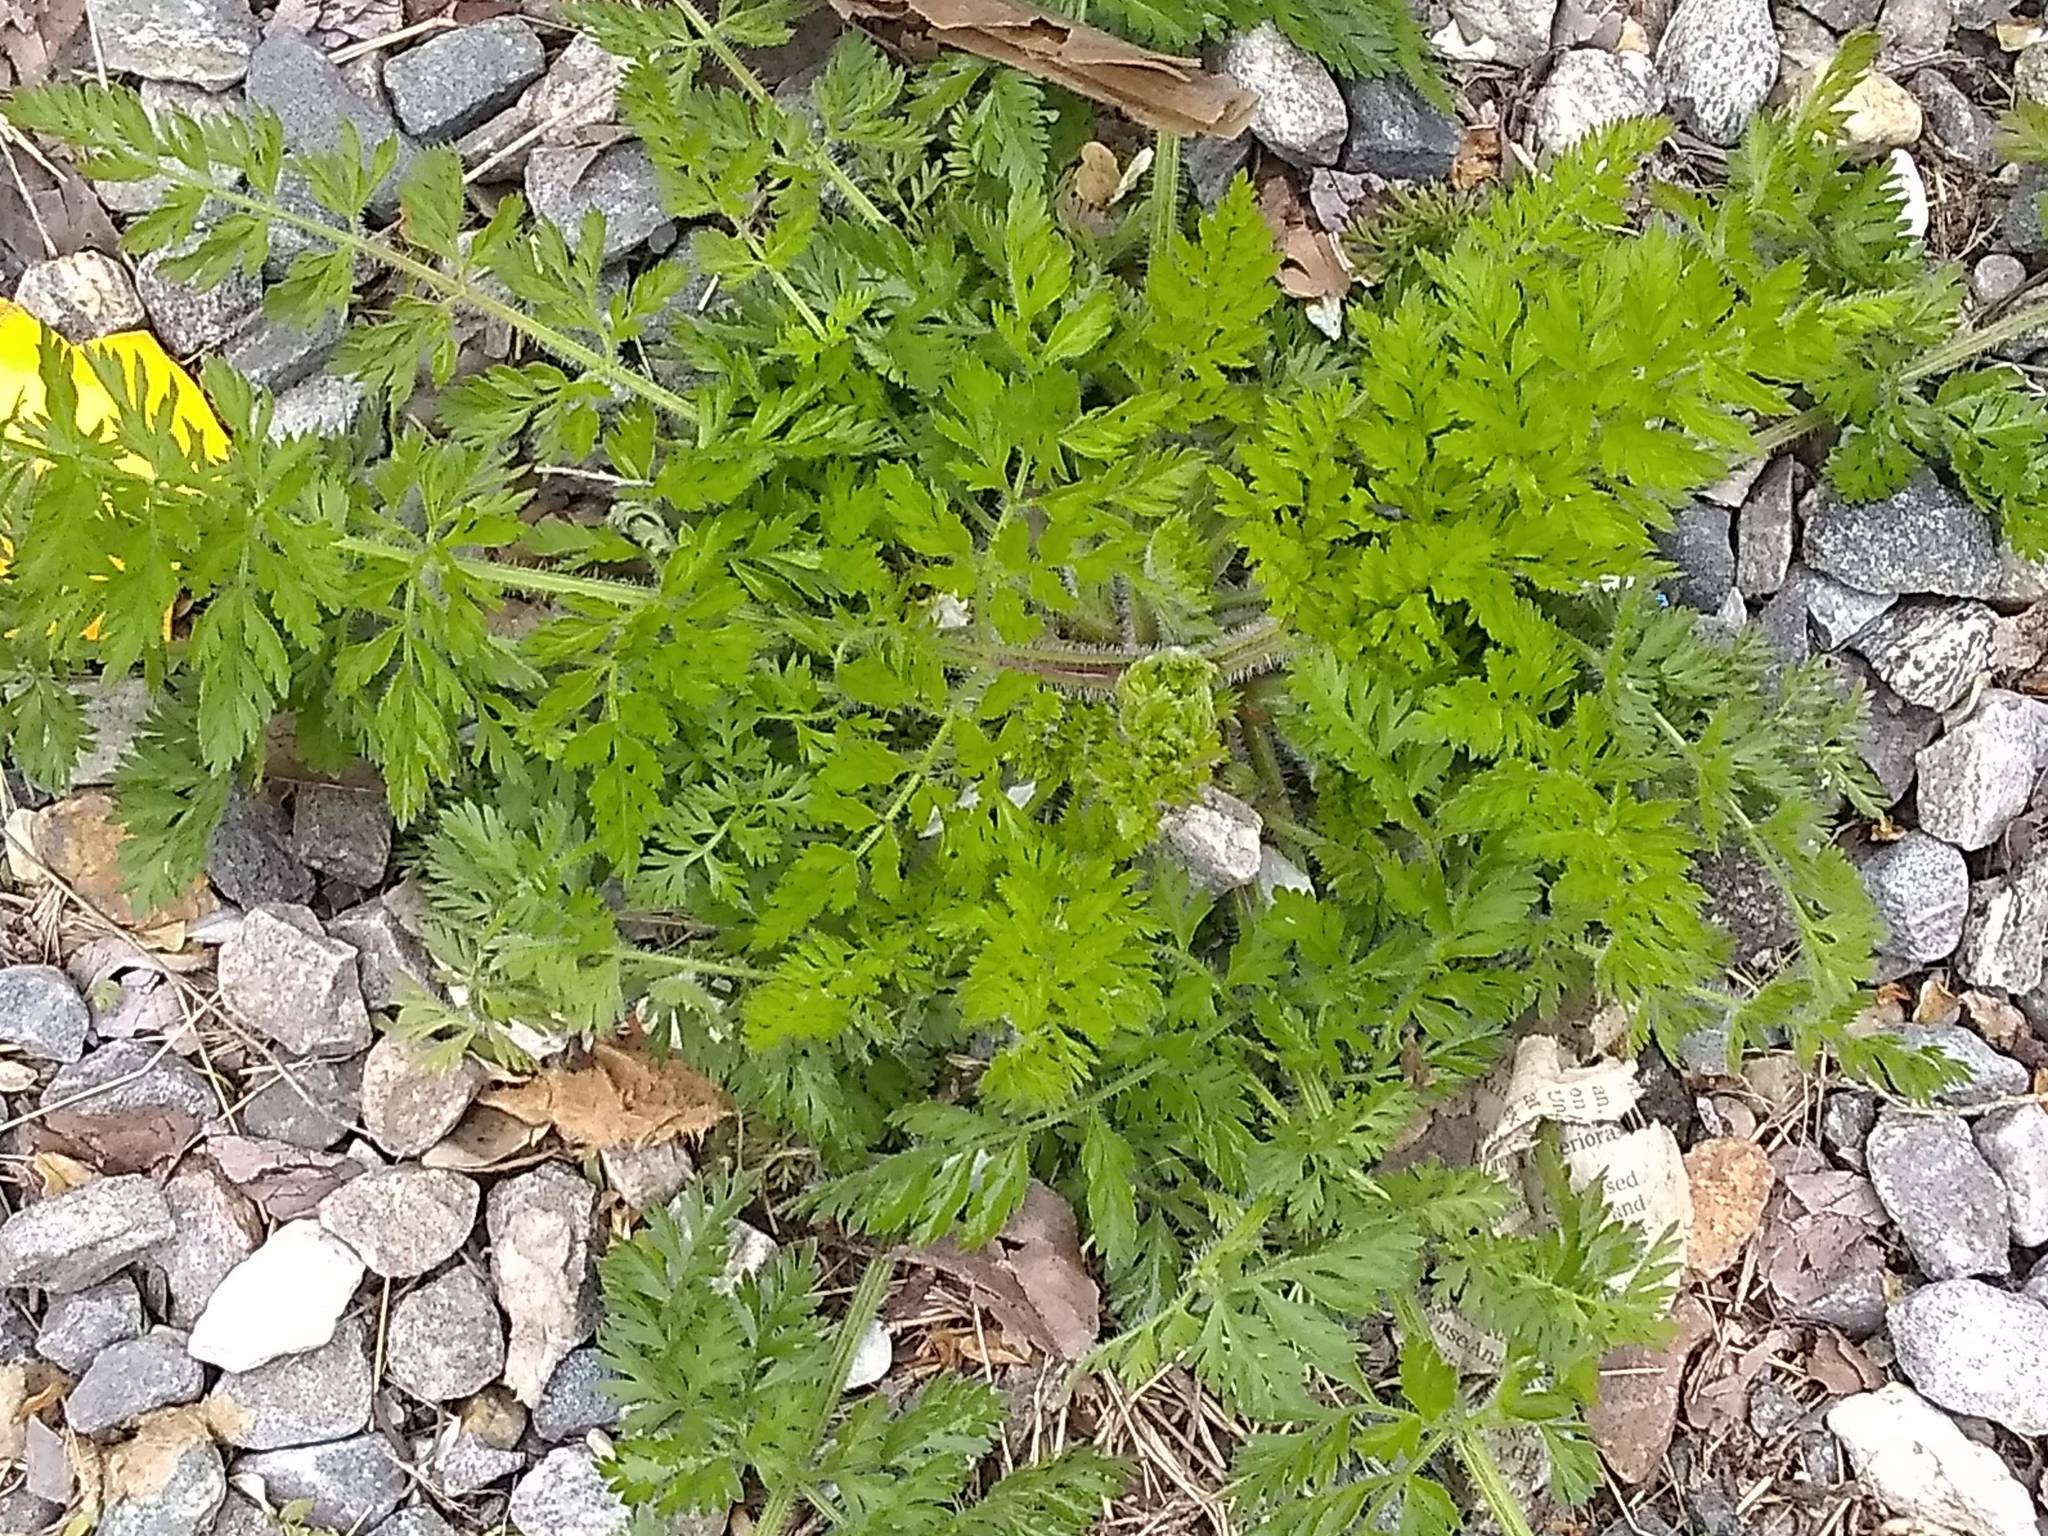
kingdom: Plantae
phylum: Tracheophyta
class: Magnoliopsida
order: Apiales
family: Apiaceae
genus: Daucus
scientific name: Daucus carota
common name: Wild carrot
